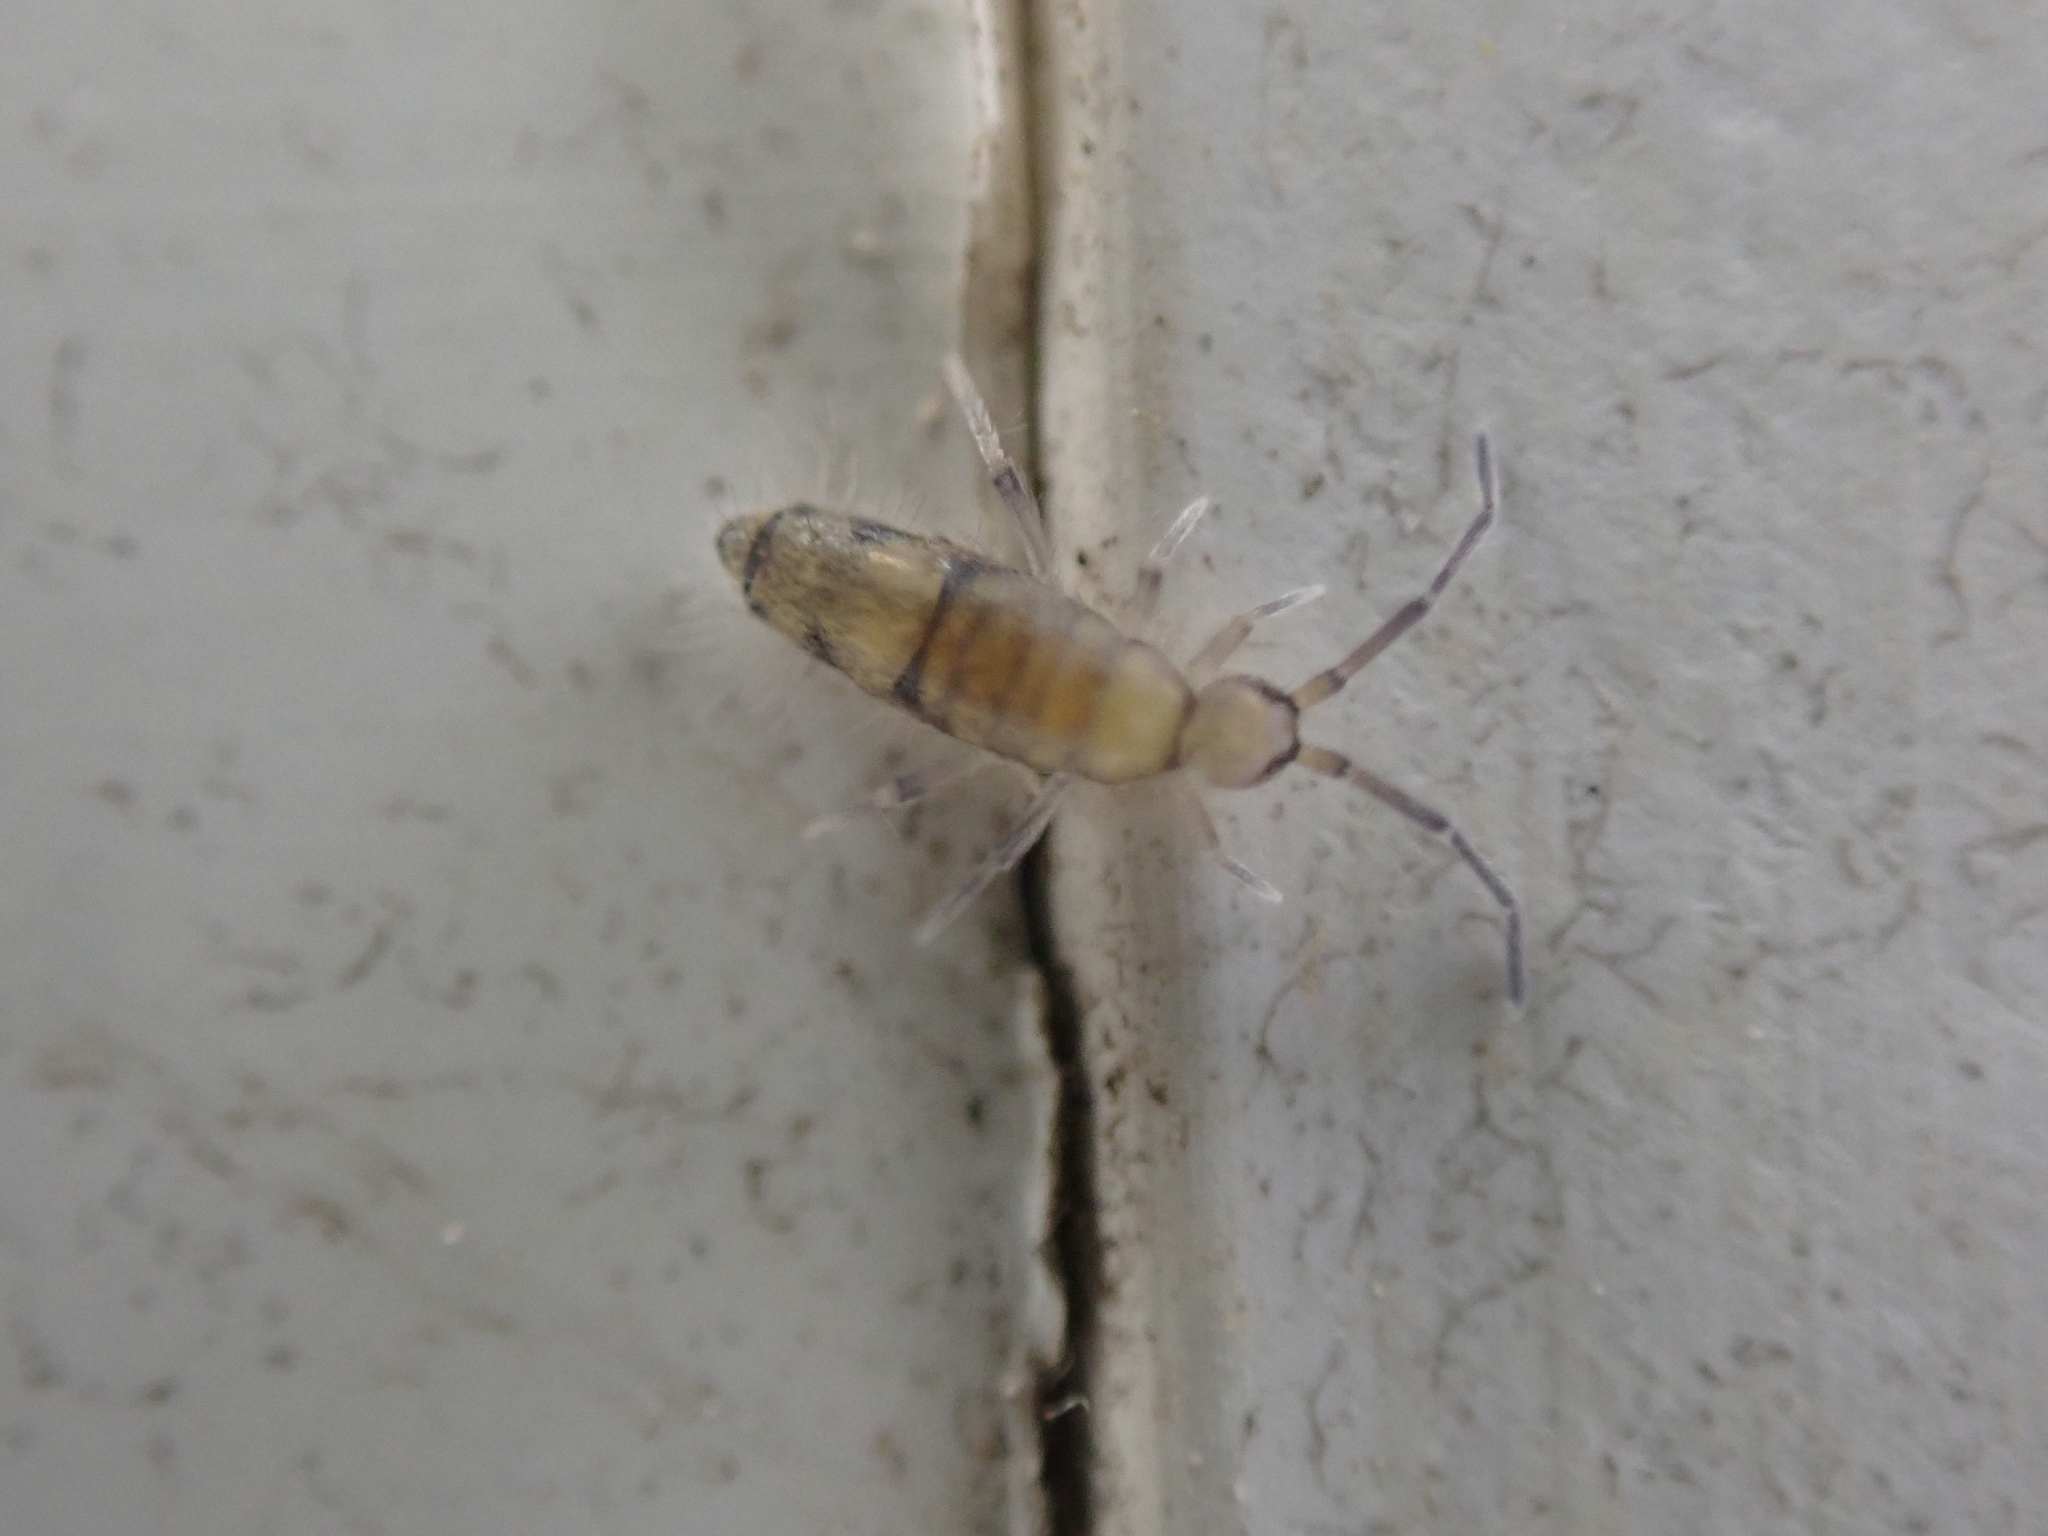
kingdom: Animalia
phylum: Arthropoda
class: Collembola
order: Entomobryomorpha
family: Entomobryidae
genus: Willowsia
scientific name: Willowsia nigromaculata
